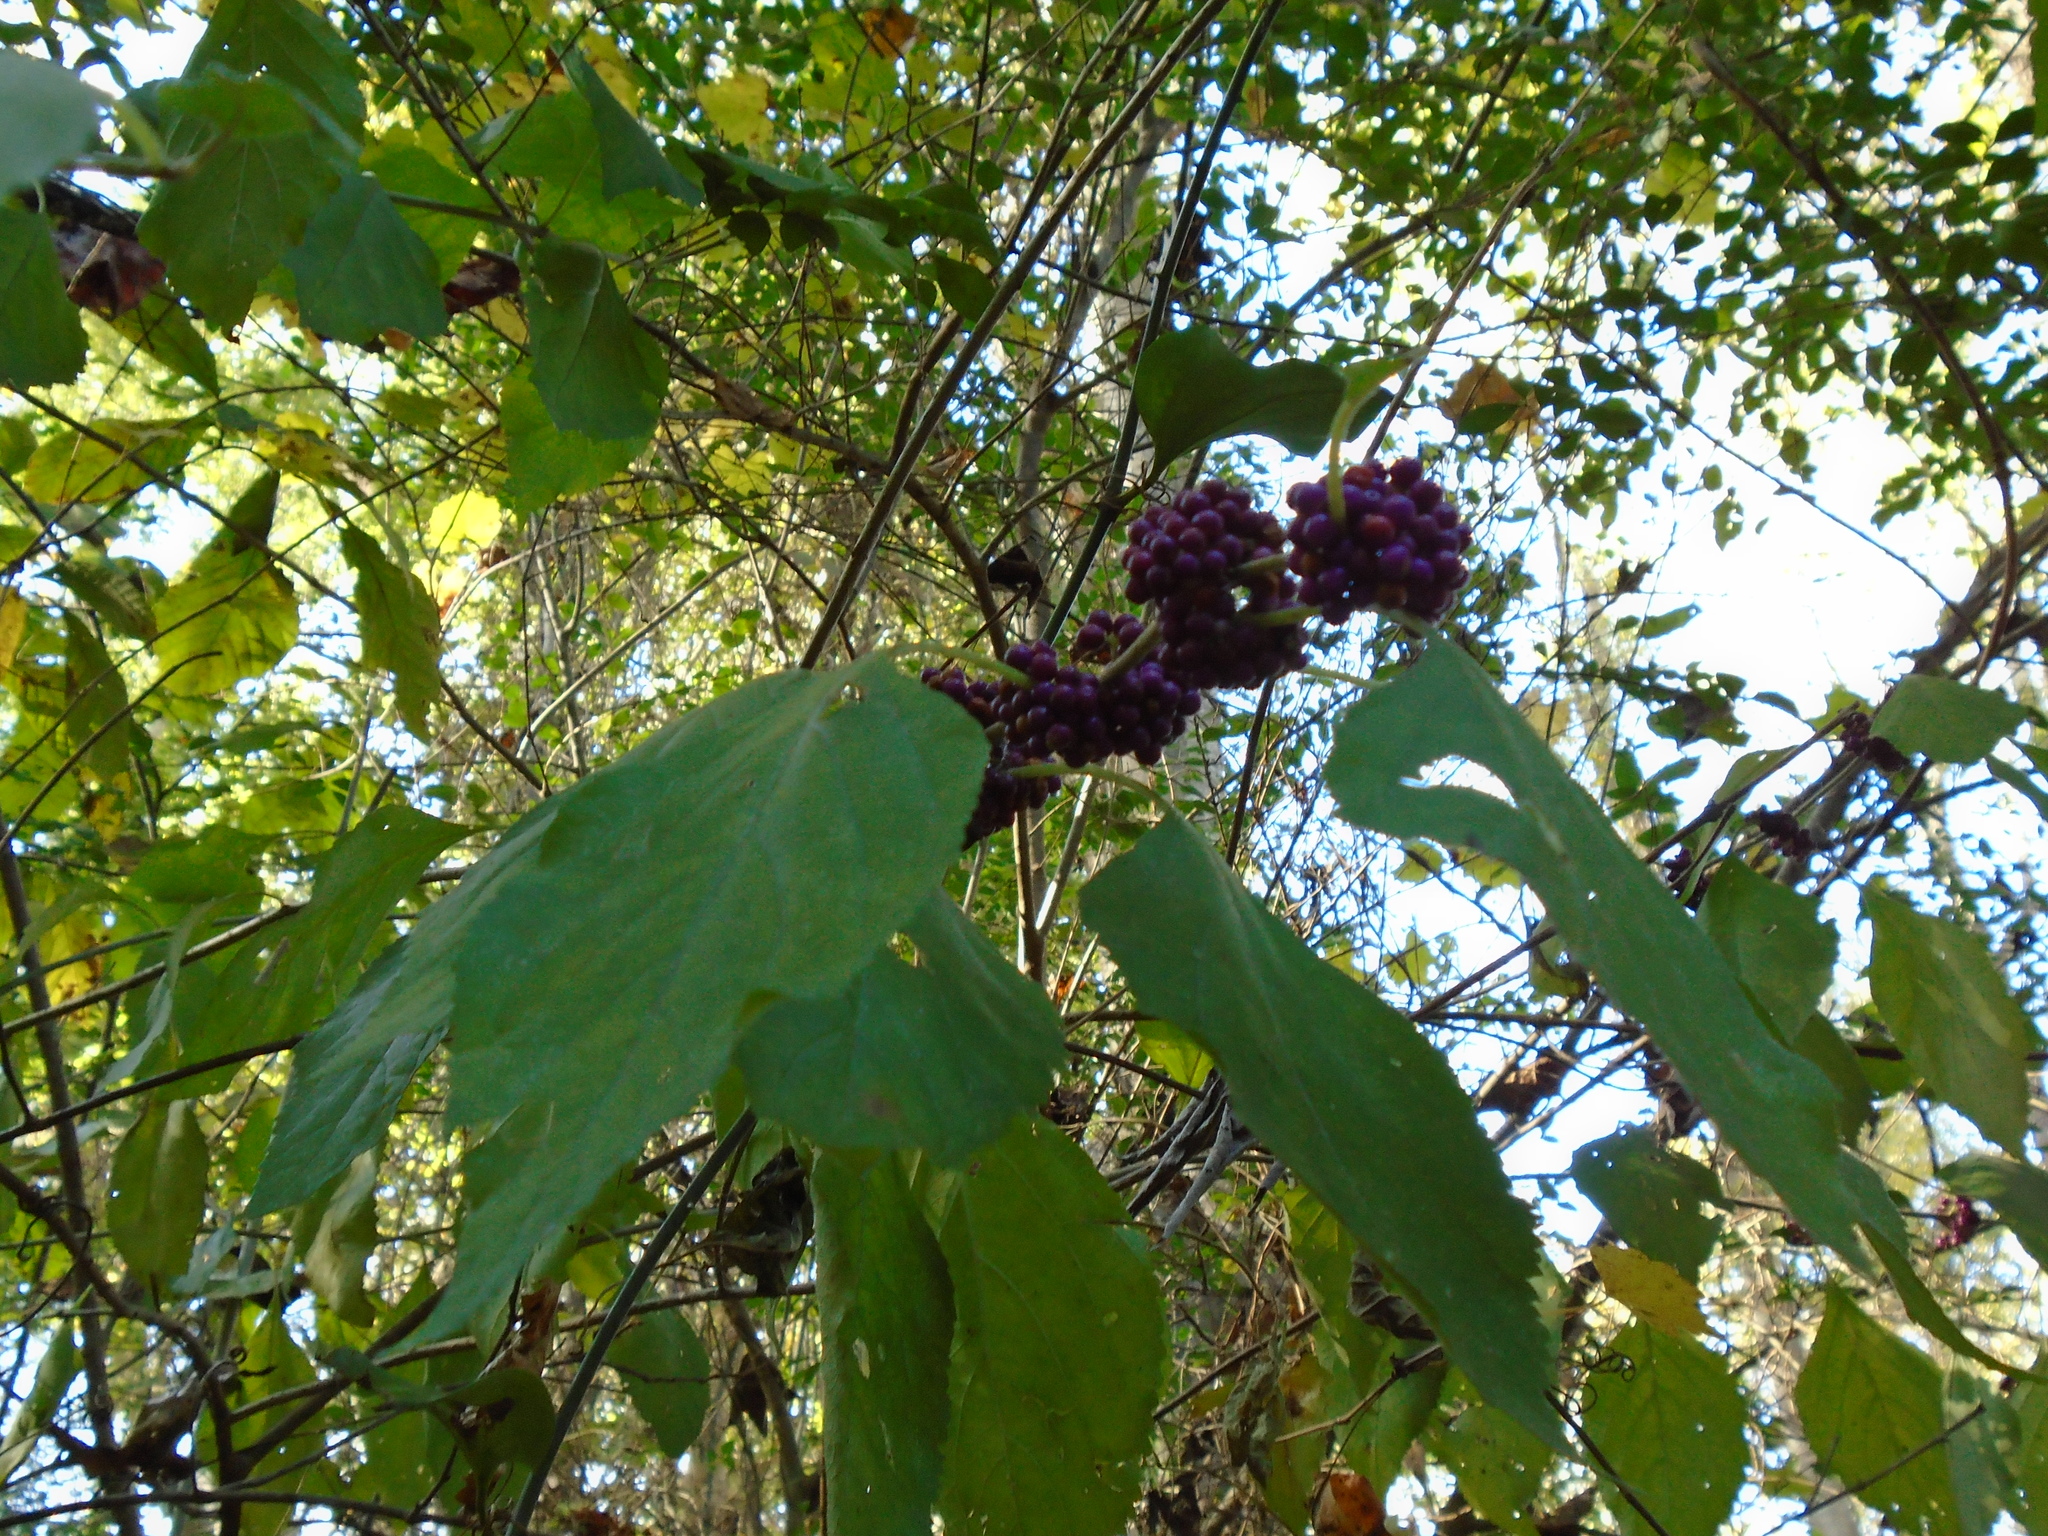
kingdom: Plantae
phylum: Tracheophyta
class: Magnoliopsida
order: Lamiales
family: Lamiaceae
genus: Callicarpa
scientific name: Callicarpa americana
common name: American beautyberry
